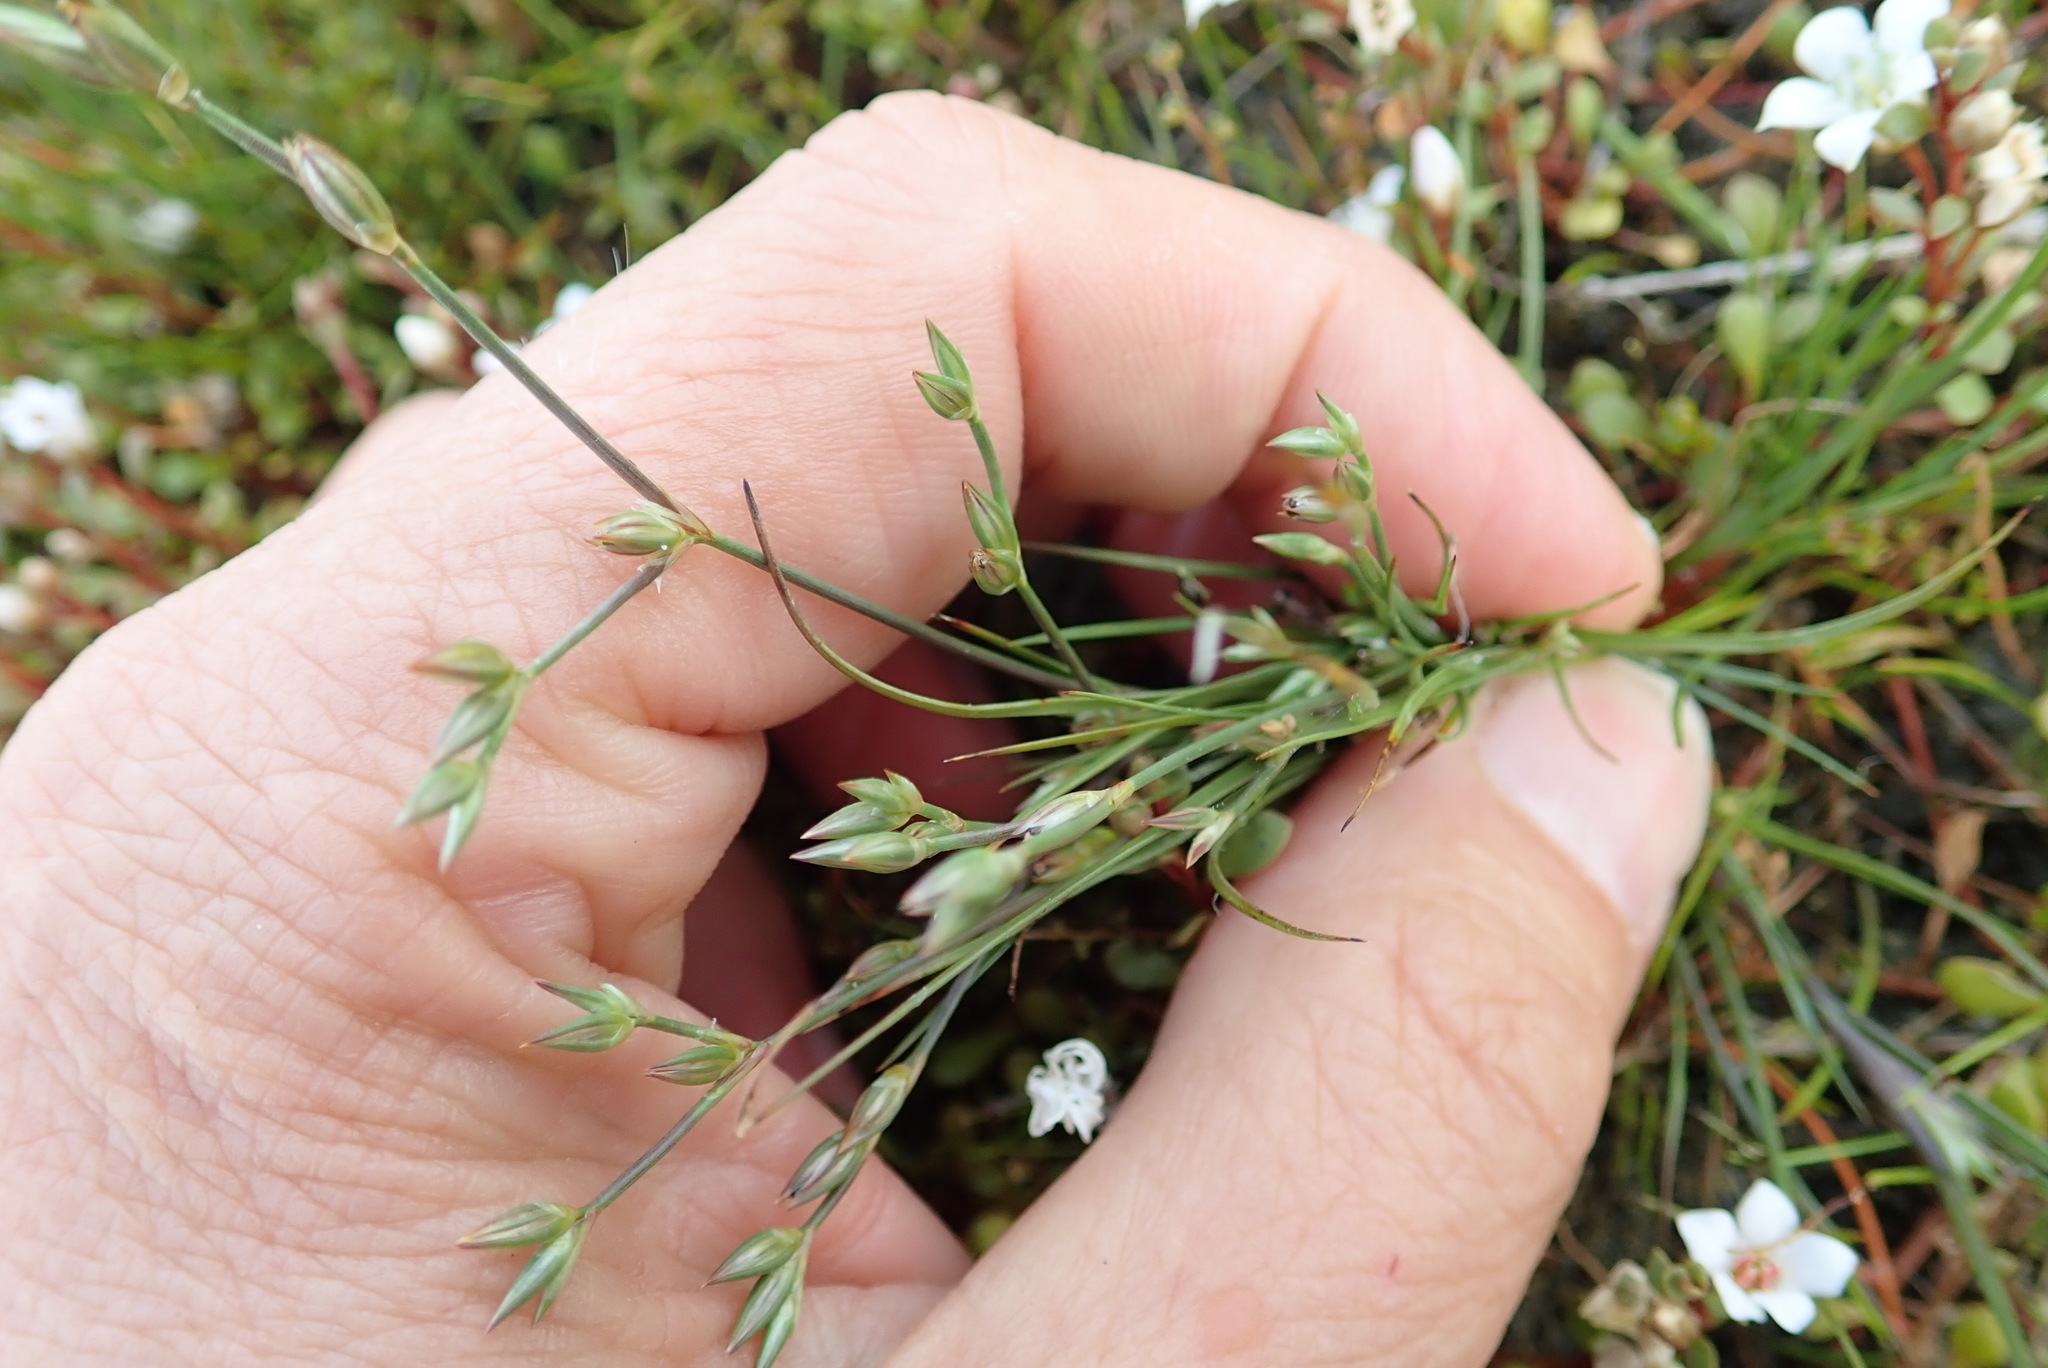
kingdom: Plantae
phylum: Tracheophyta
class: Liliopsida
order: Poales
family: Juncaceae
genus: Juncus
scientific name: Juncus bufonius
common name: Toad rush
